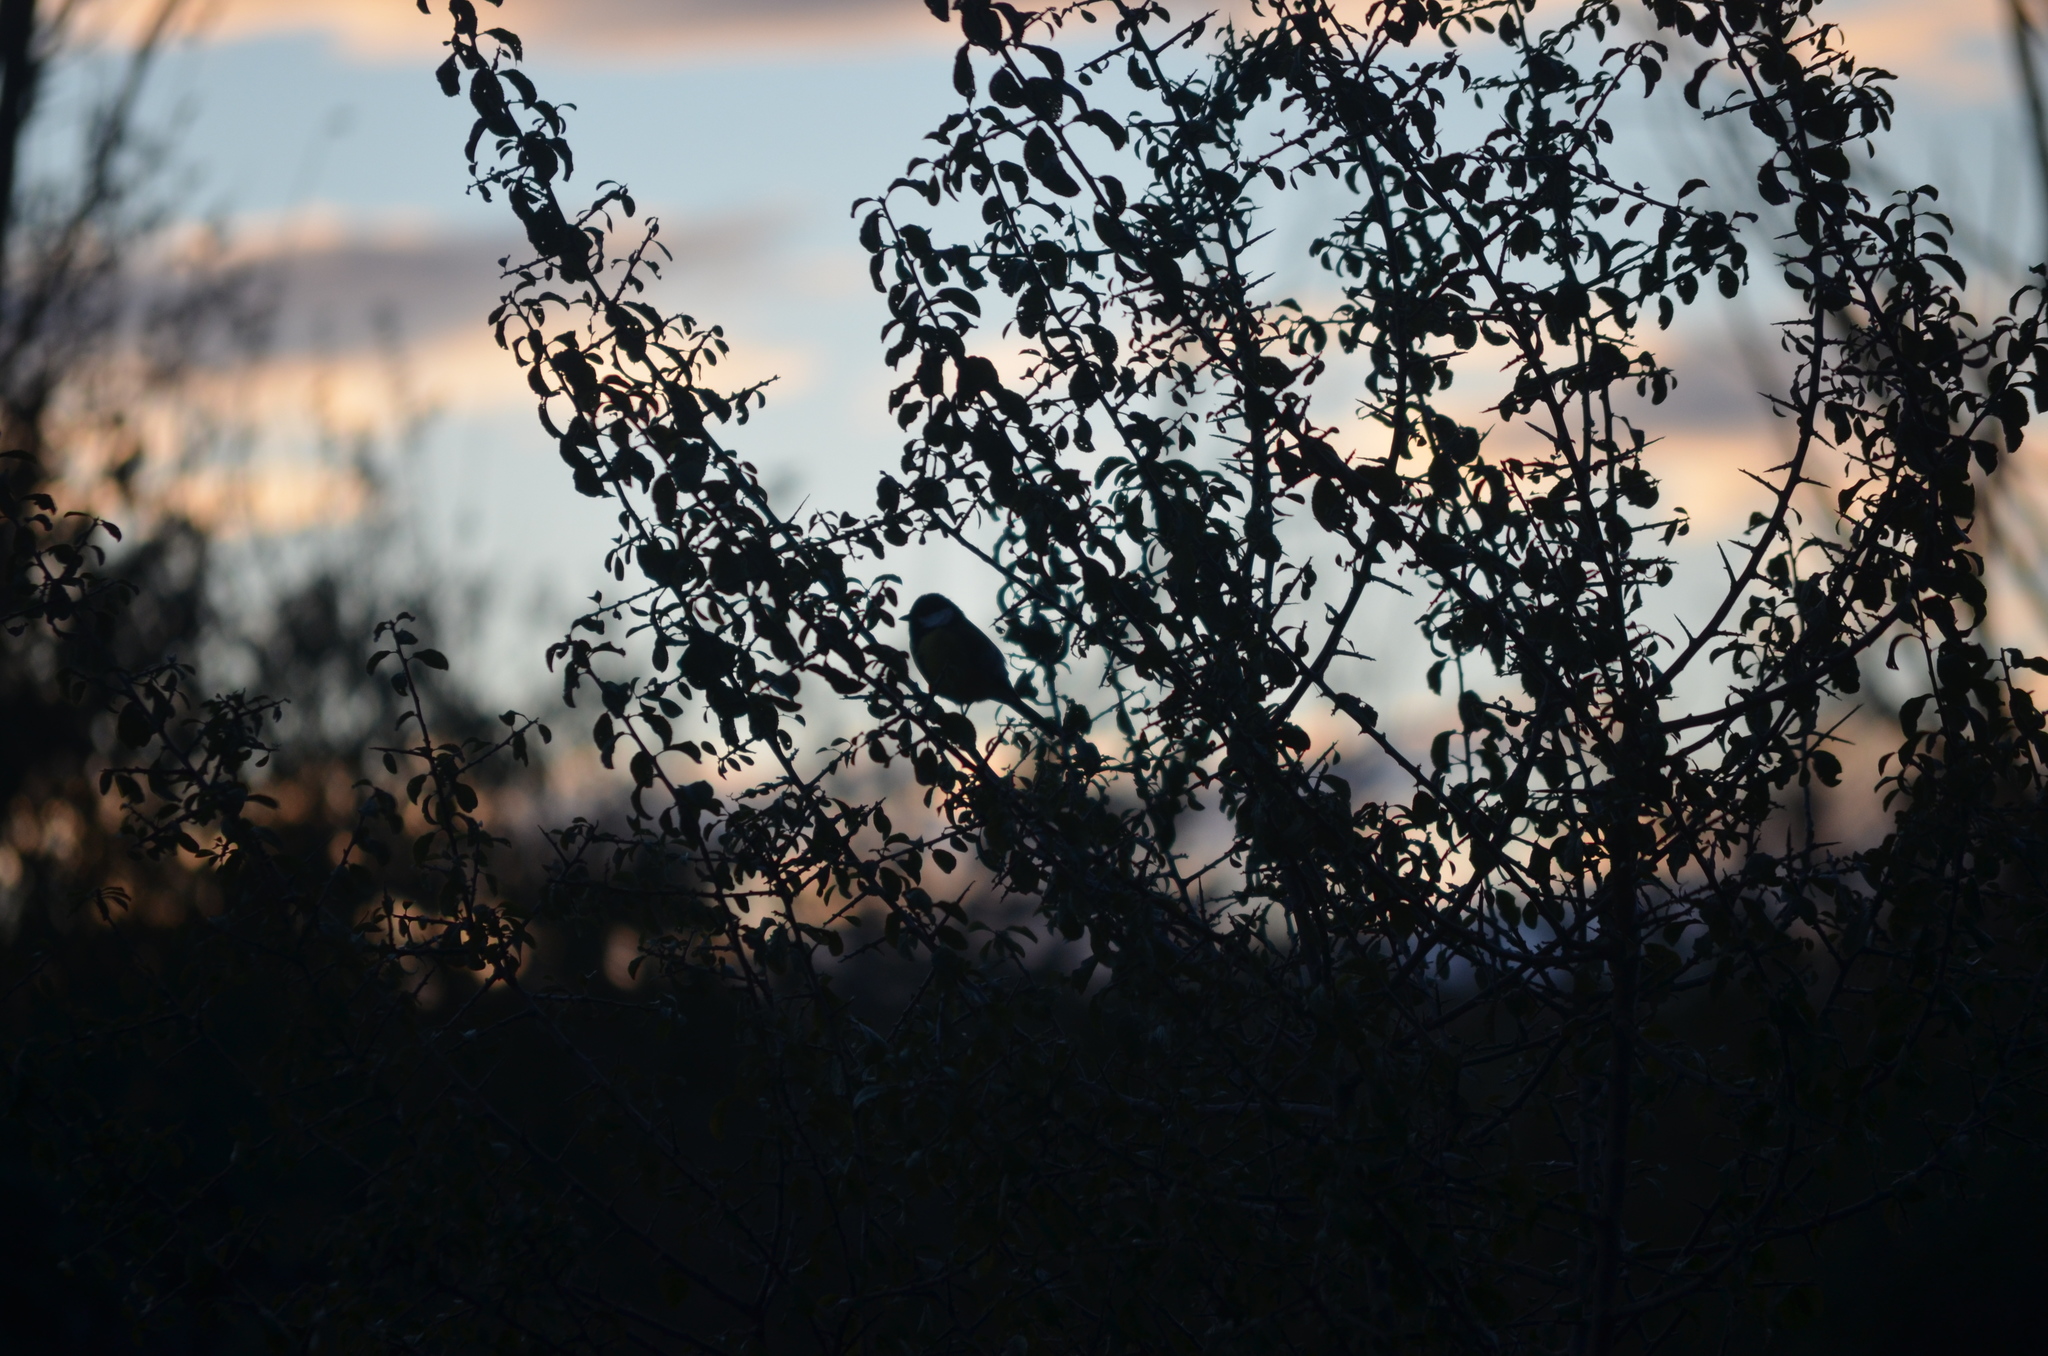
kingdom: Animalia
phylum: Chordata
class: Aves
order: Passeriformes
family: Paridae
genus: Parus
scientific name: Parus major
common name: Great tit
